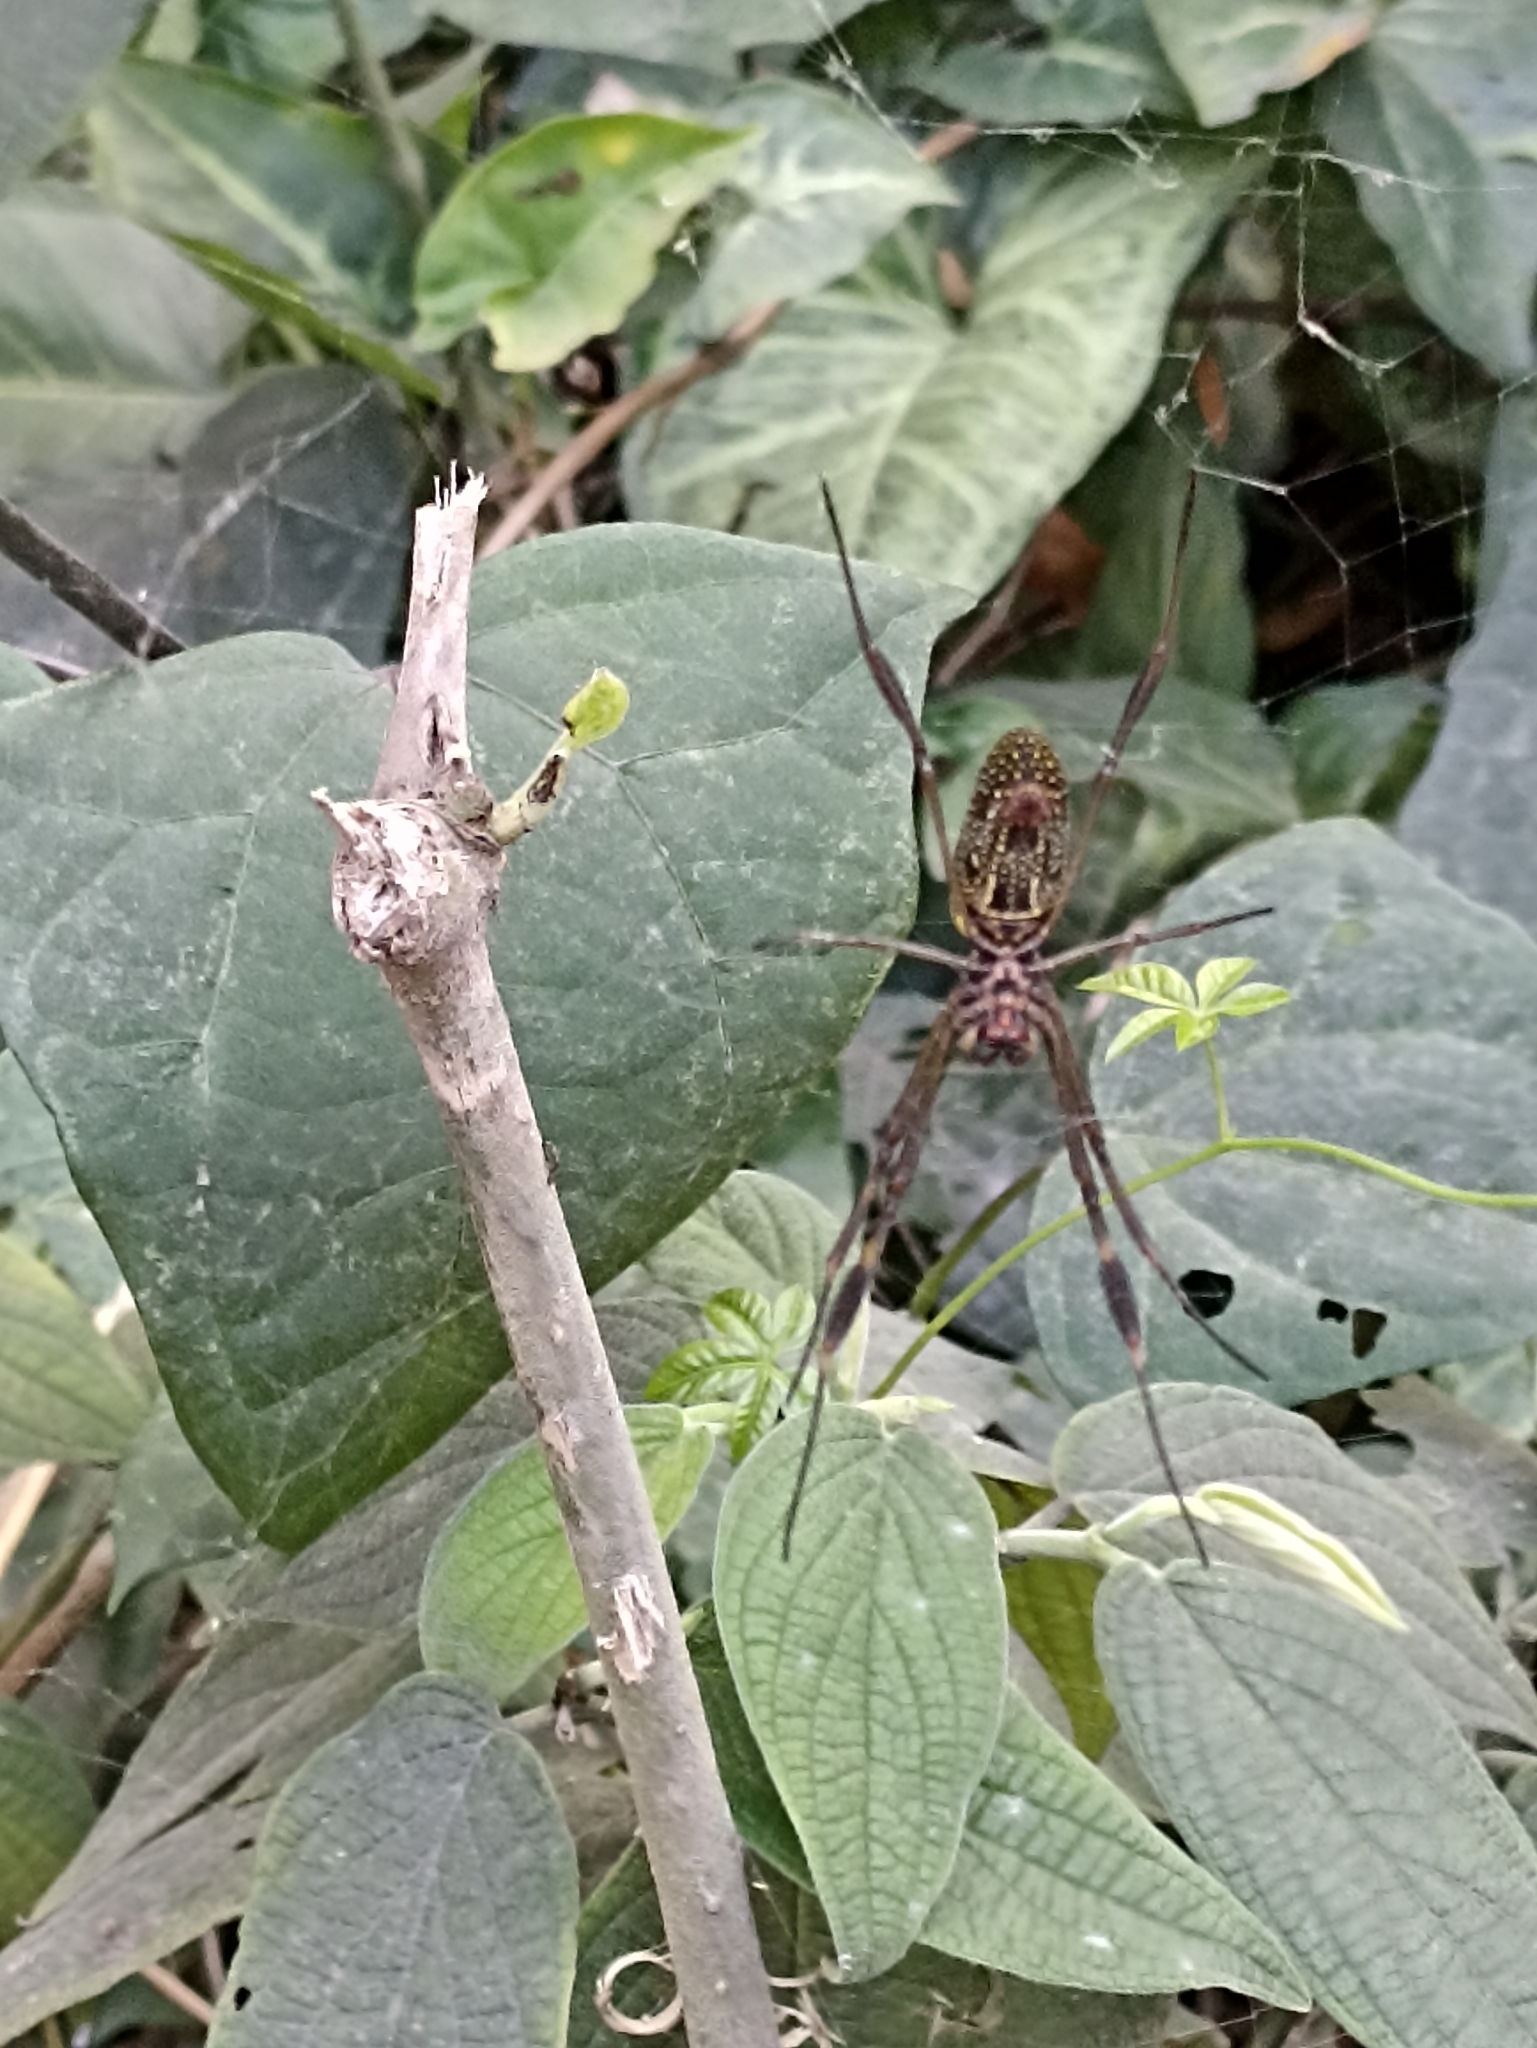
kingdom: Animalia
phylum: Arthropoda
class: Arachnida
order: Araneae
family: Araneidae
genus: Trichonephila
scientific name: Trichonephila clavipes
